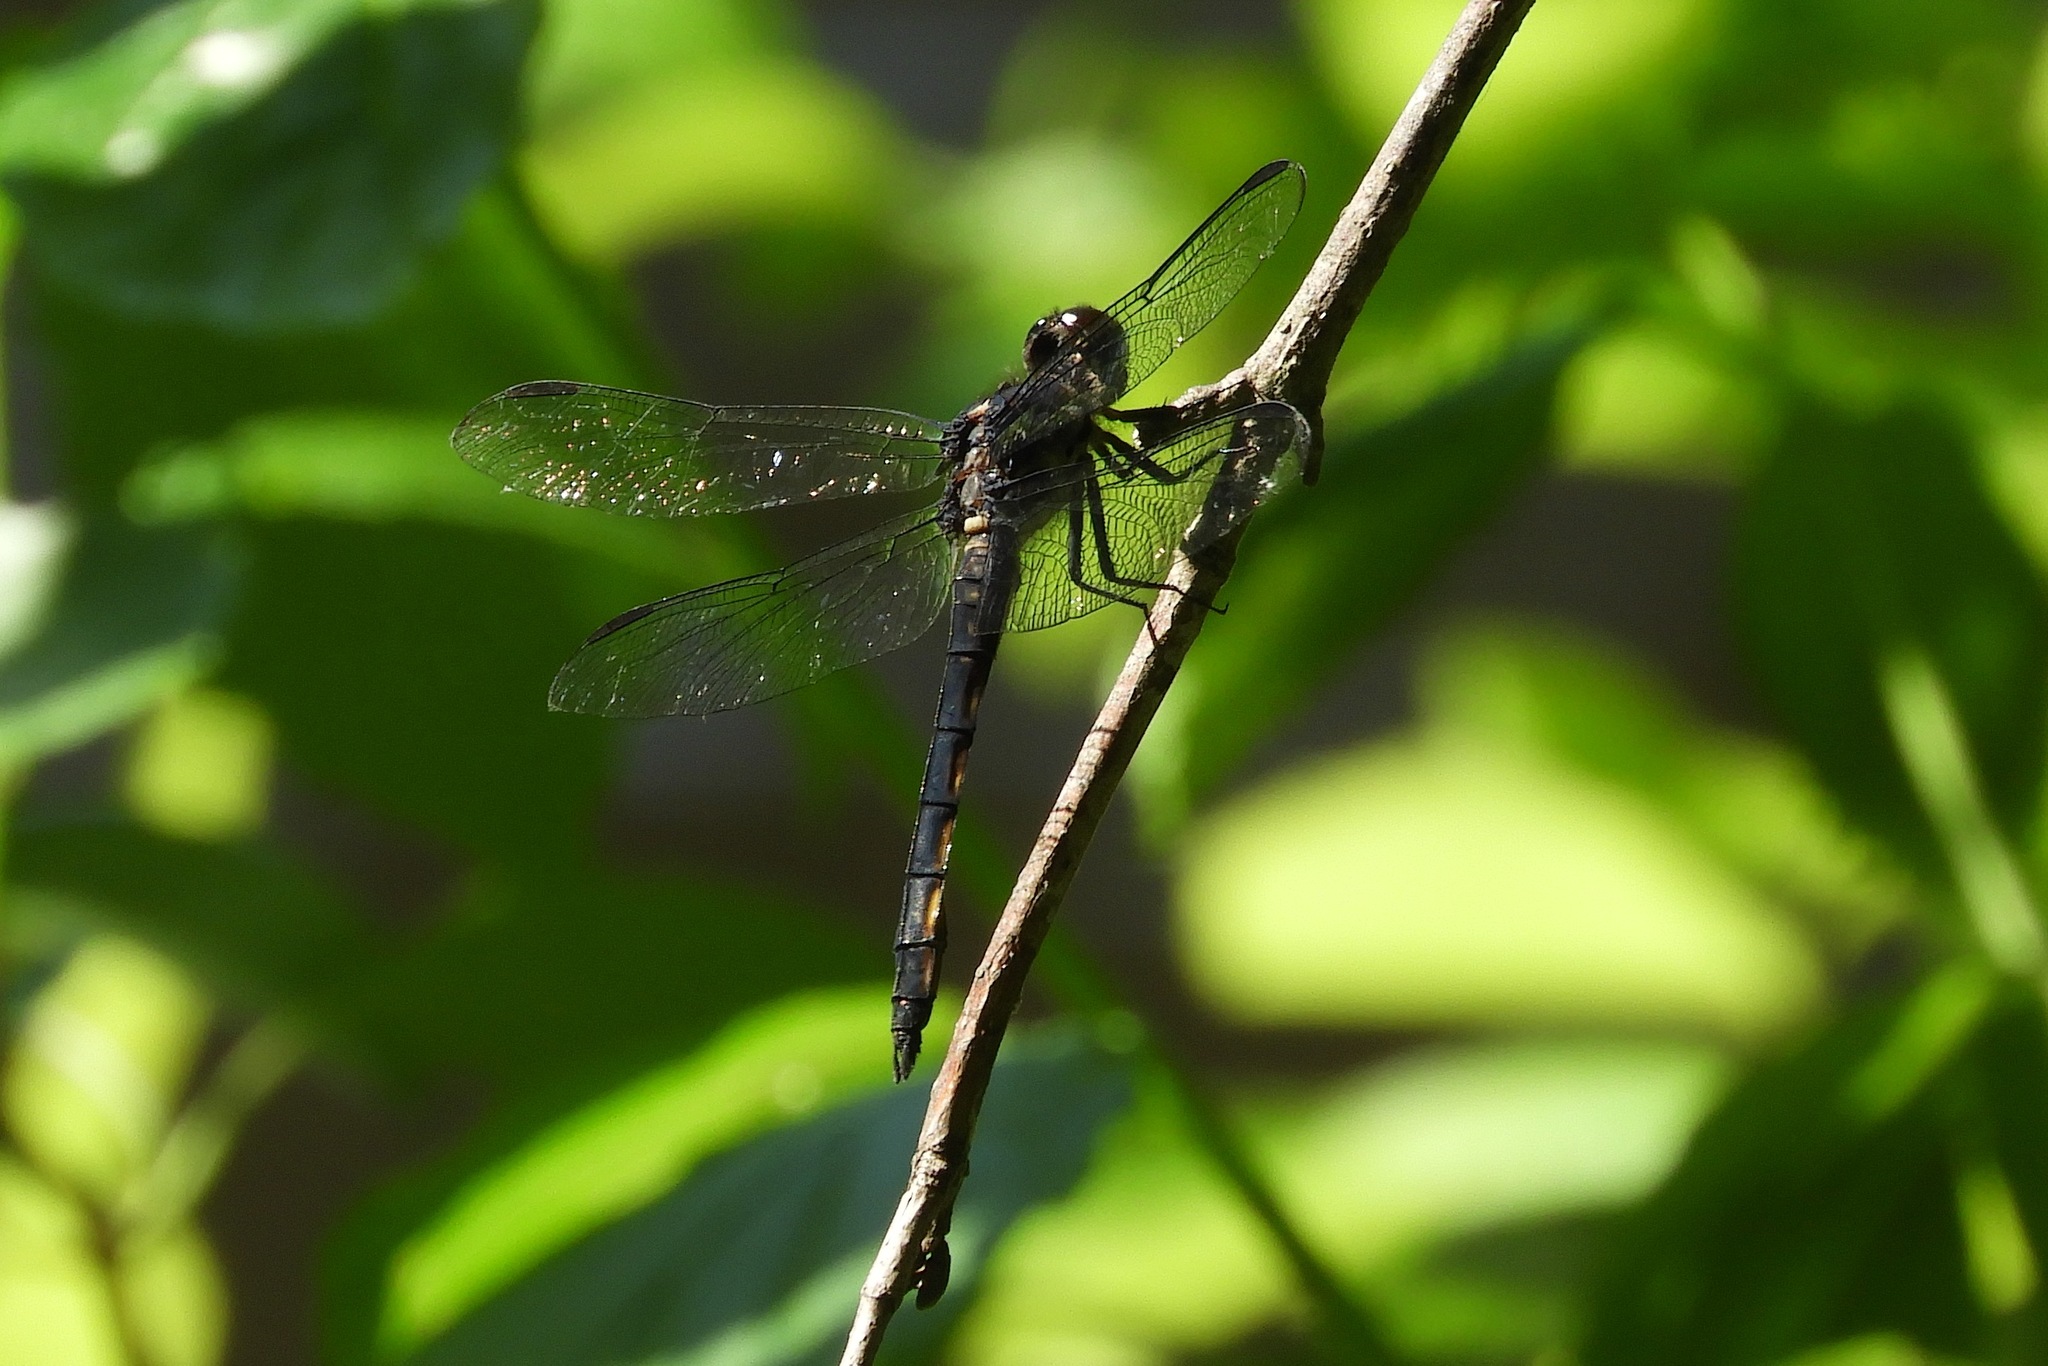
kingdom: Animalia
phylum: Arthropoda
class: Insecta
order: Odonata
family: Libellulidae
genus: Libellula
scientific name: Libellula incesta
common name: Slaty skimmer
